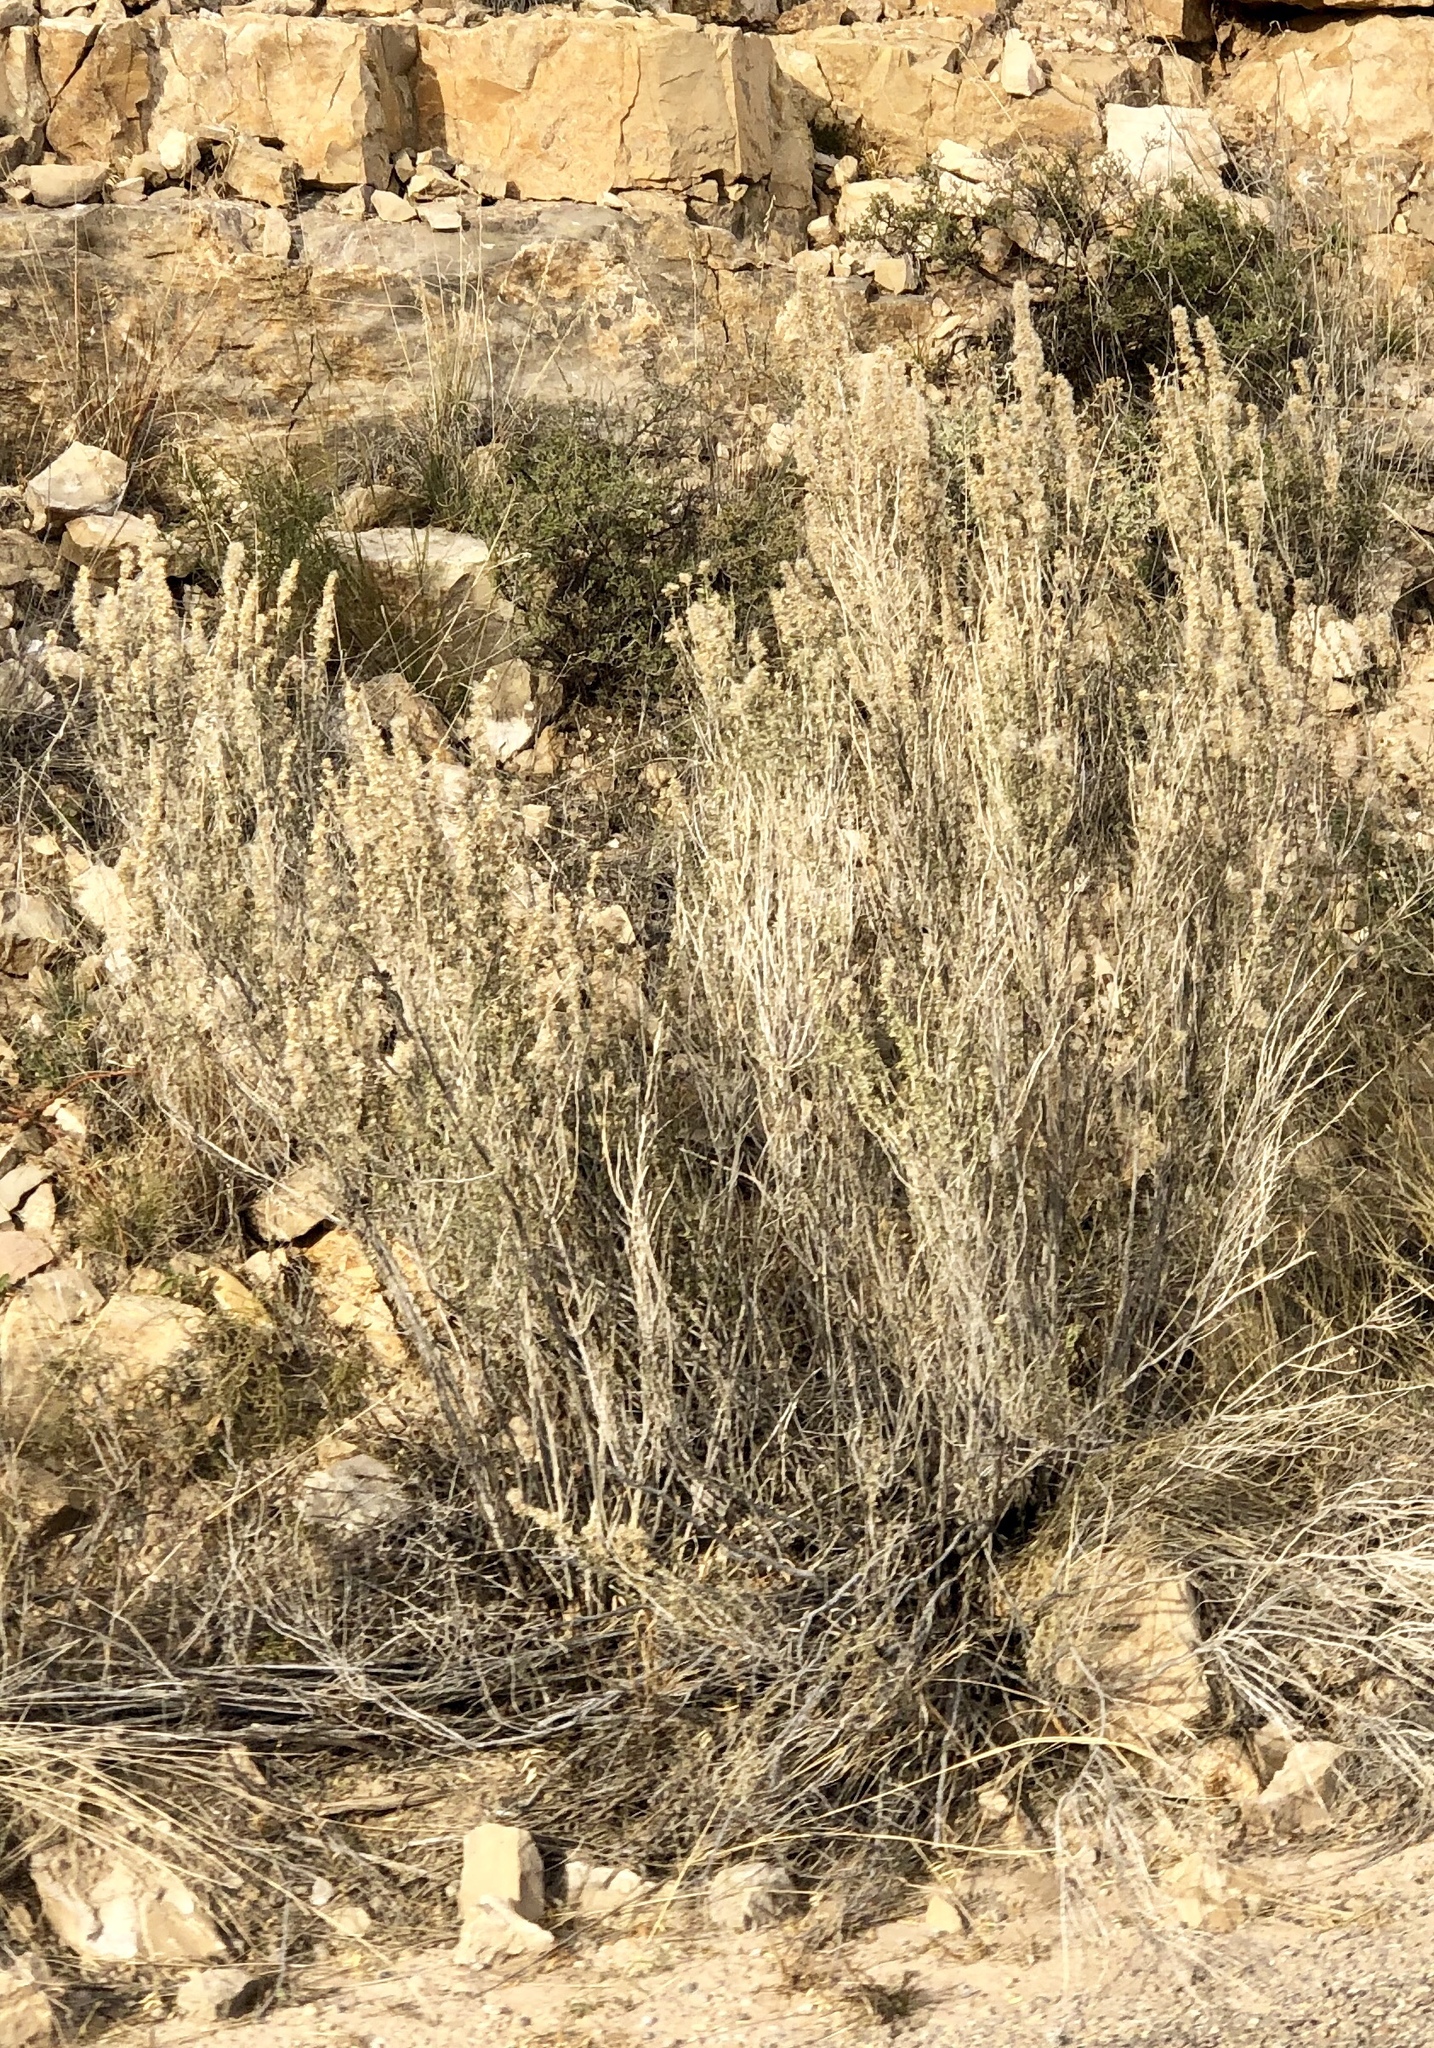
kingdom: Plantae
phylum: Tracheophyta
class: Magnoliopsida
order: Asterales
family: Asteraceae
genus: Brickellia
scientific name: Brickellia laciniata
